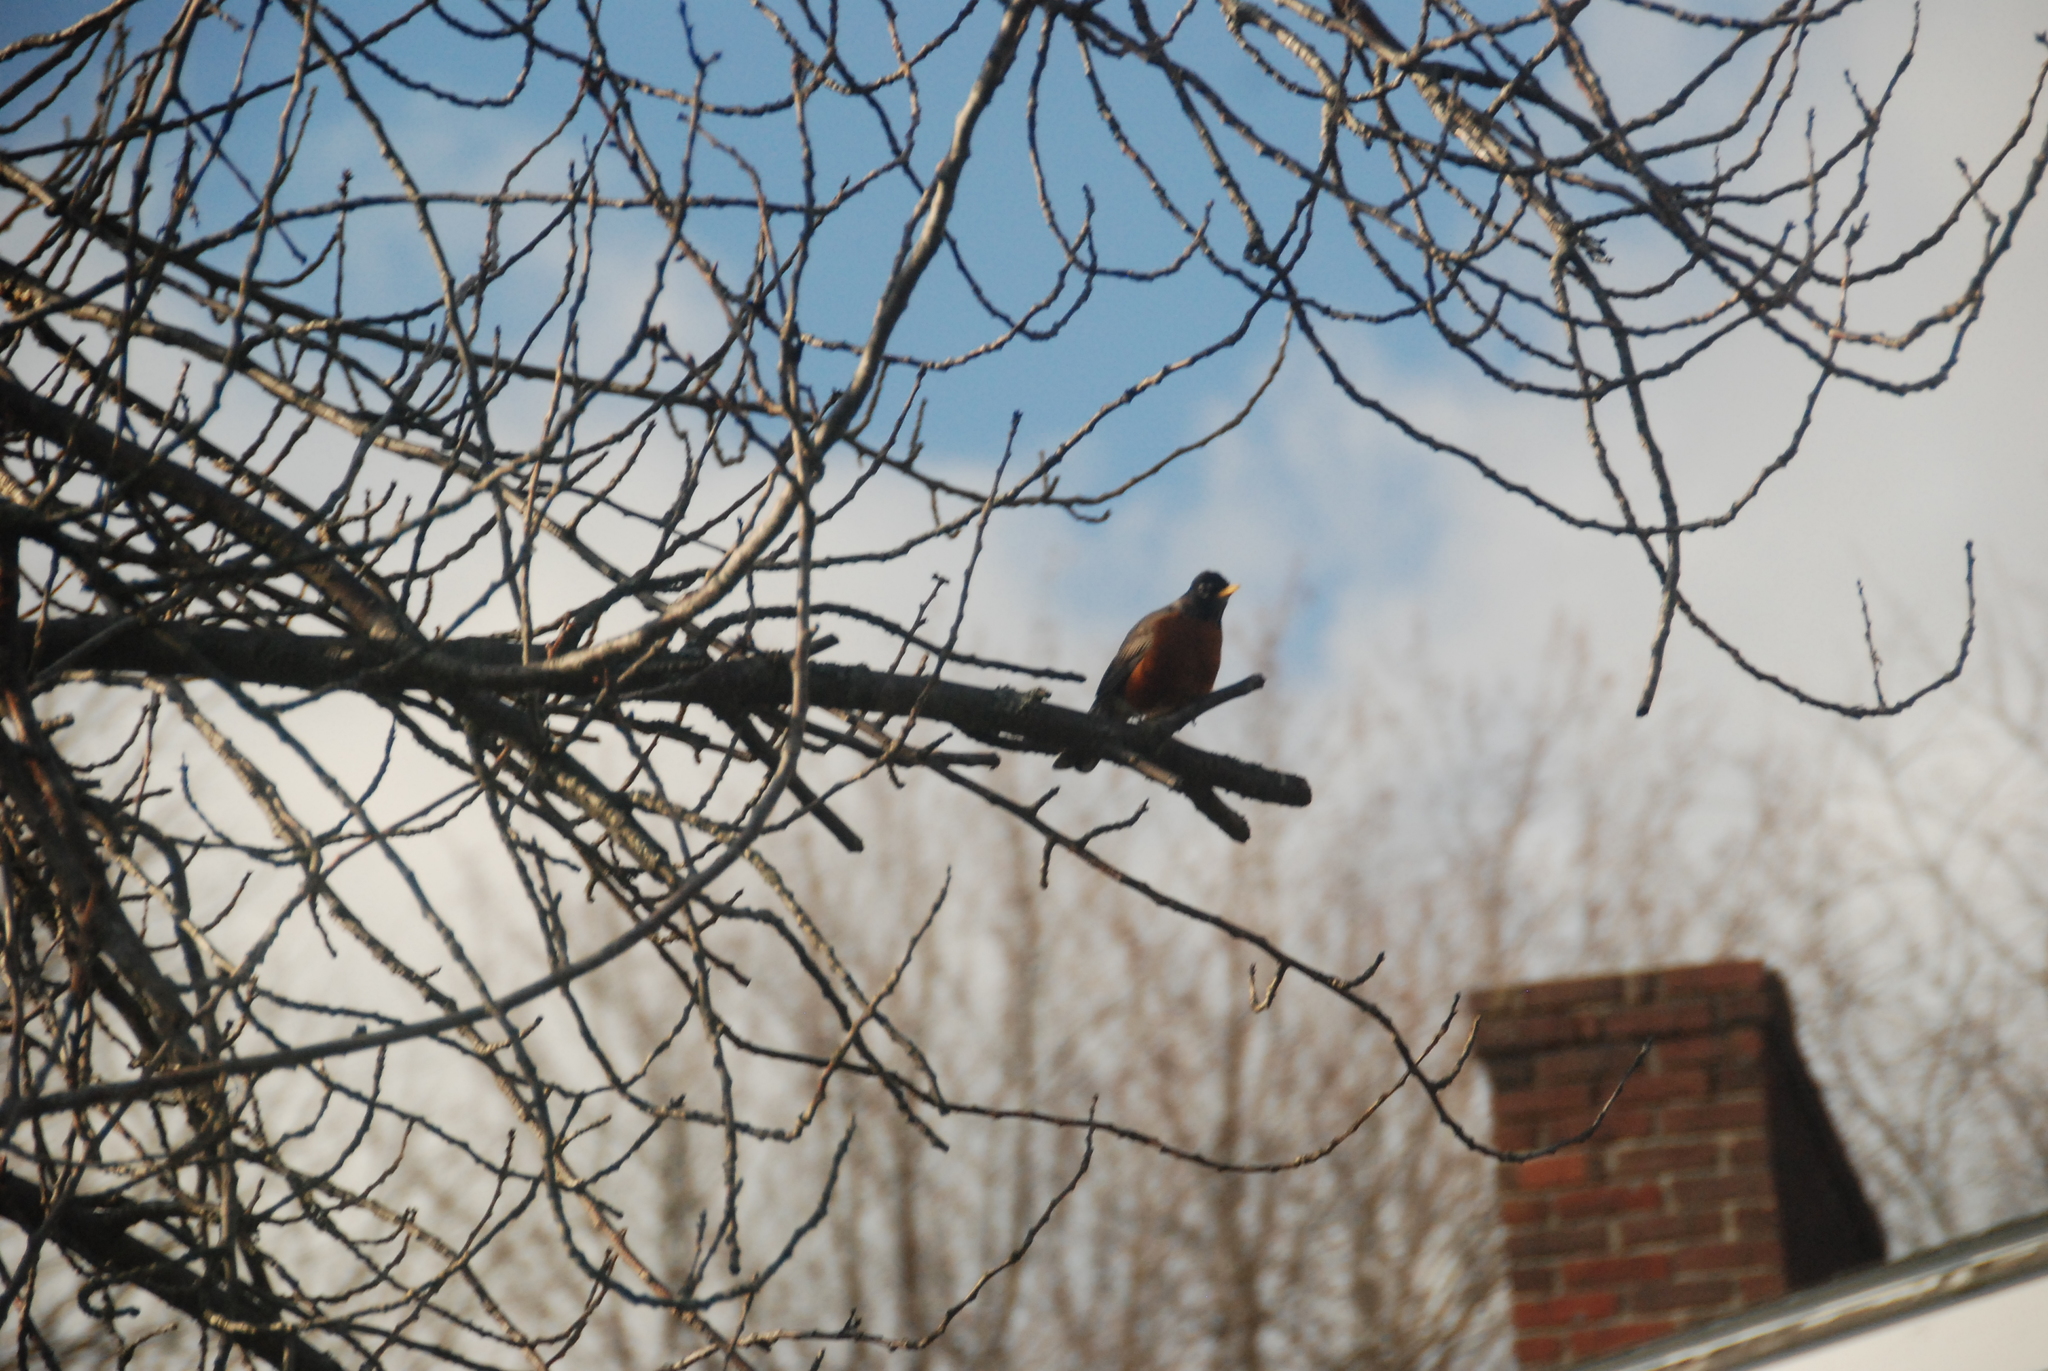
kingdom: Animalia
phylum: Chordata
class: Aves
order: Passeriformes
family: Turdidae
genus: Turdus
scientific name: Turdus migratorius
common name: American robin
